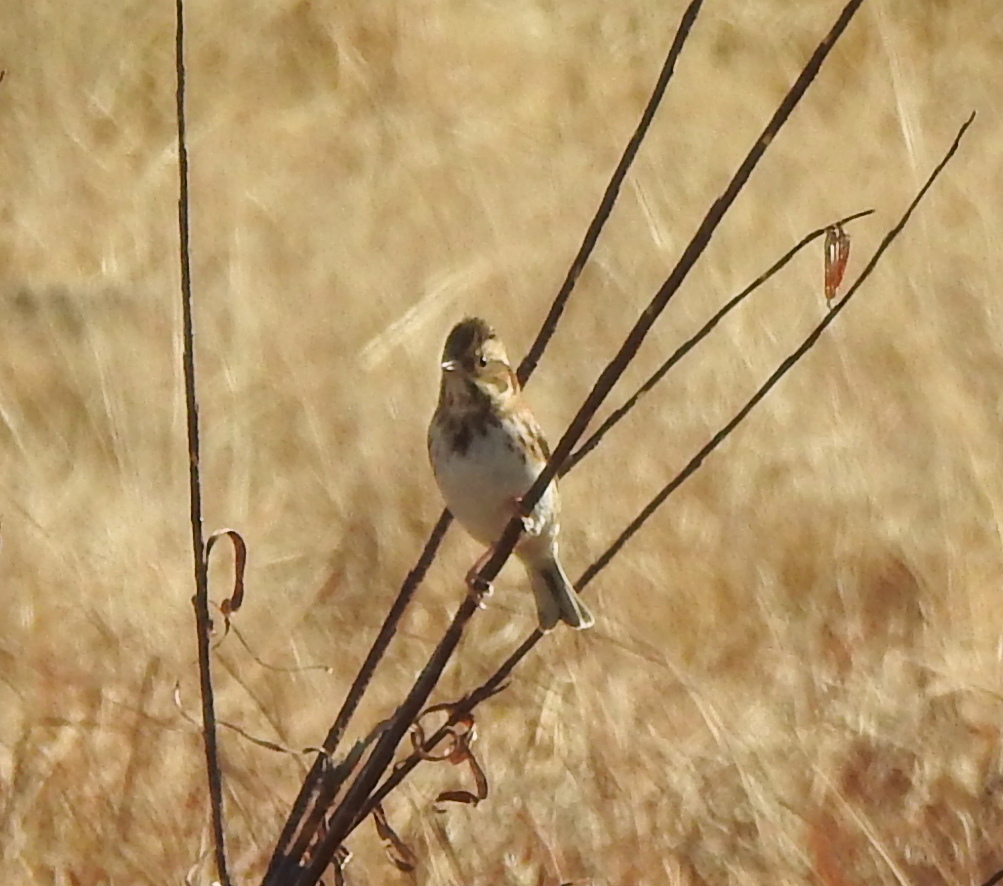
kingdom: Animalia
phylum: Chordata
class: Aves
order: Passeriformes
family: Emberizidae
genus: Emberiza
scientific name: Emberiza rustica
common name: Rustic bunting
